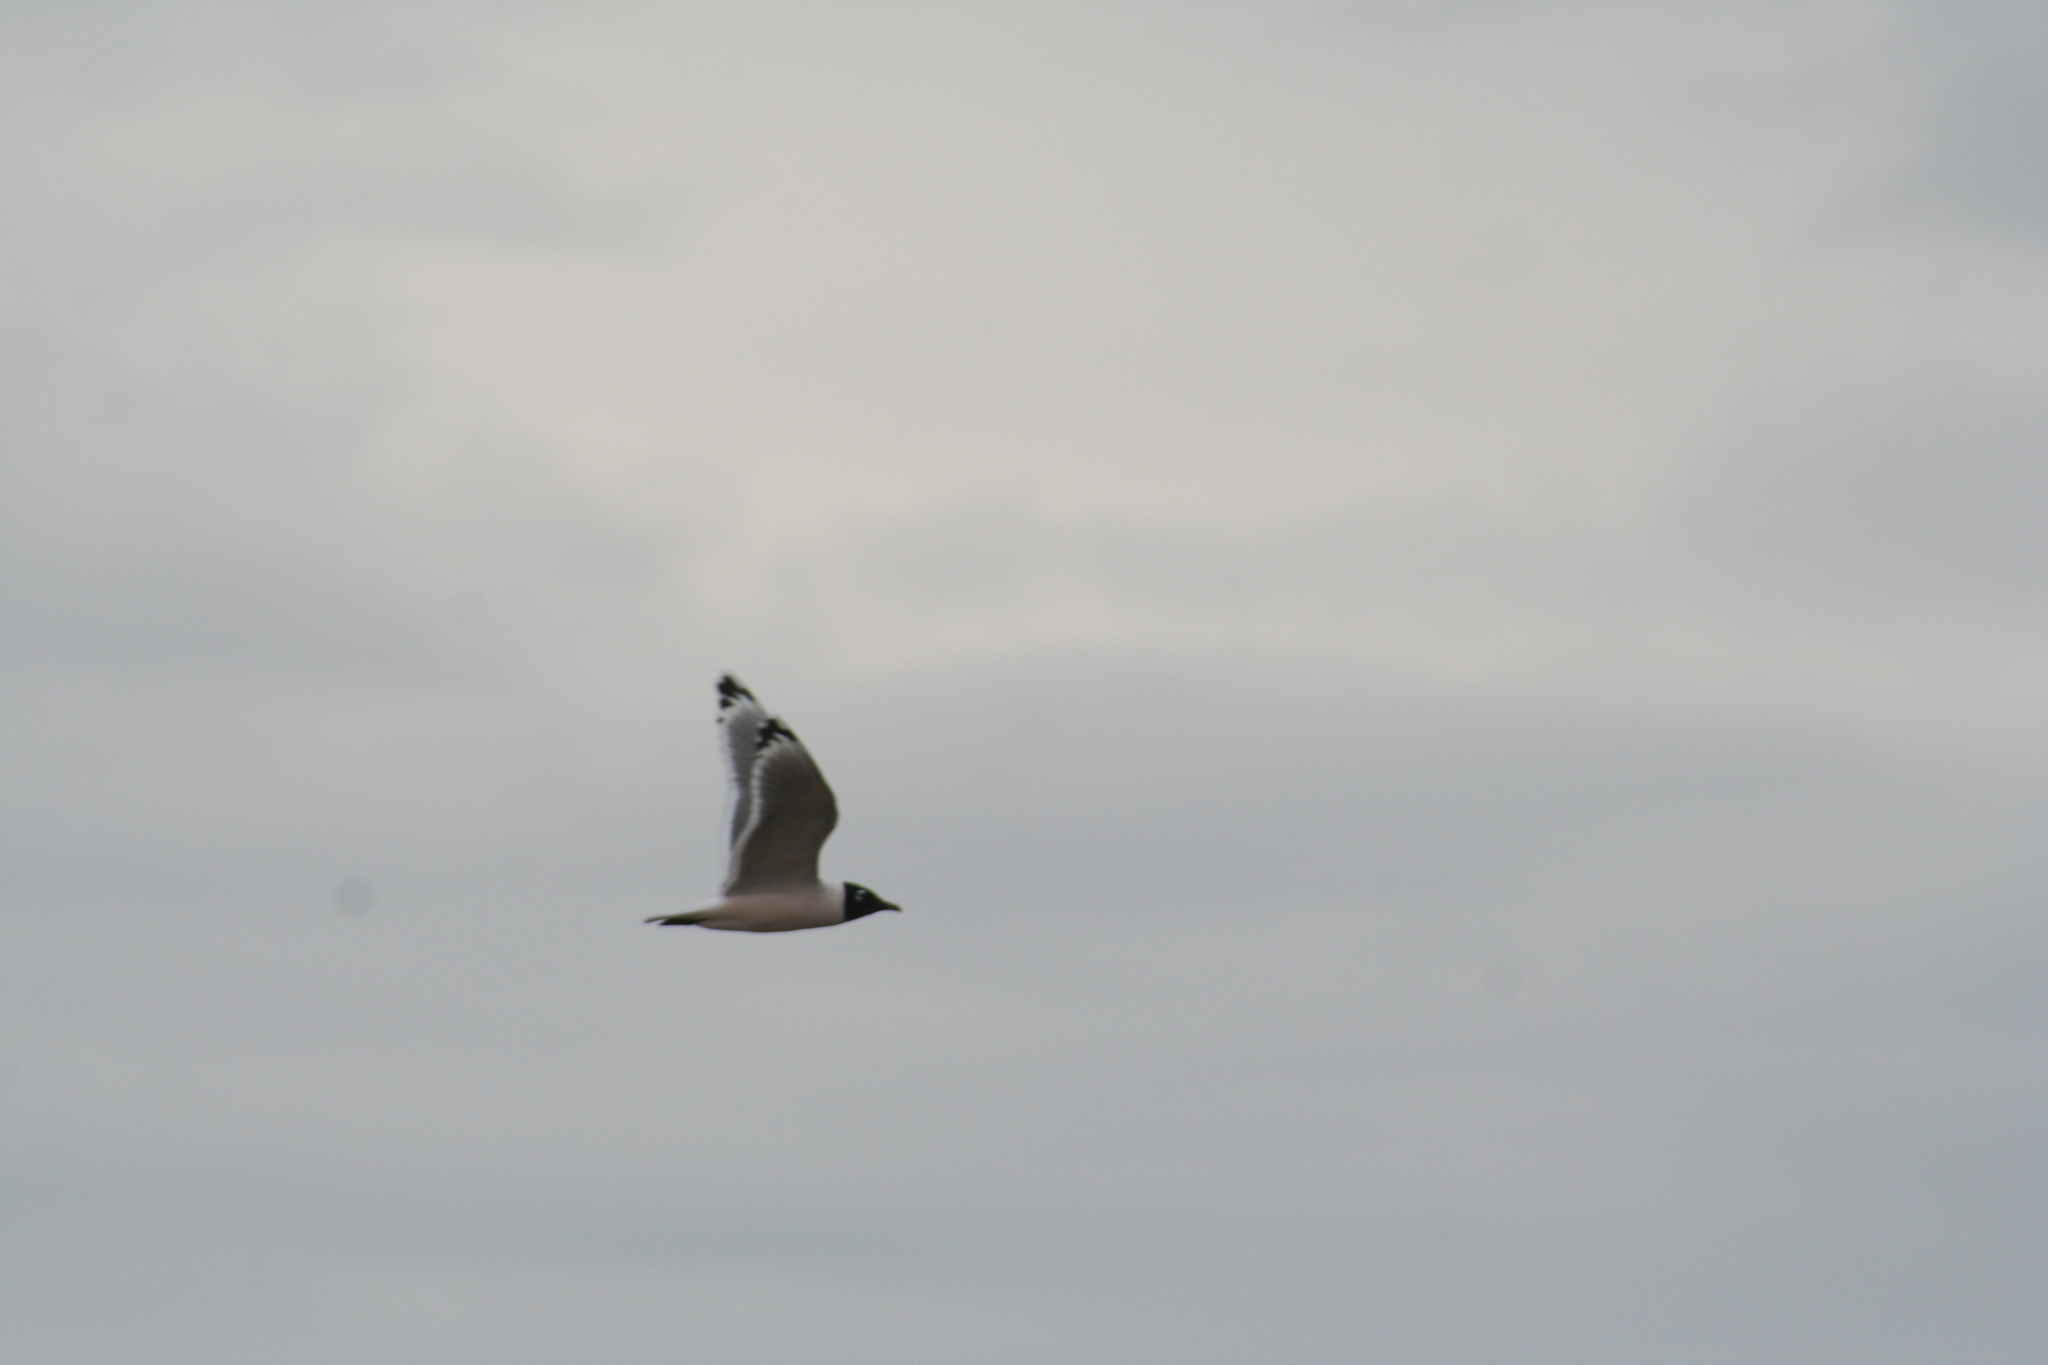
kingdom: Animalia
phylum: Chordata
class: Aves
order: Charadriiformes
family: Laridae
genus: Leucophaeus
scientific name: Leucophaeus pipixcan
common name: Franklin's gull
